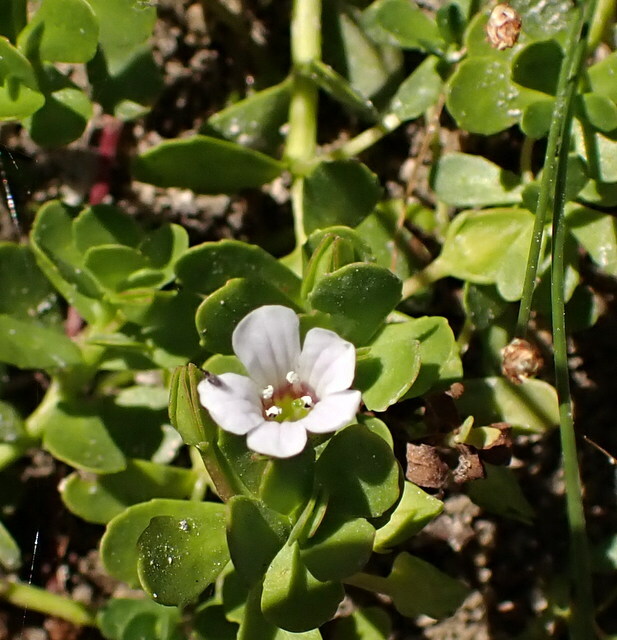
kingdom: Plantae
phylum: Tracheophyta
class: Magnoliopsida
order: Lamiales
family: Plantaginaceae
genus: Bacopa
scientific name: Bacopa monnieri
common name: Indian-pennywort
